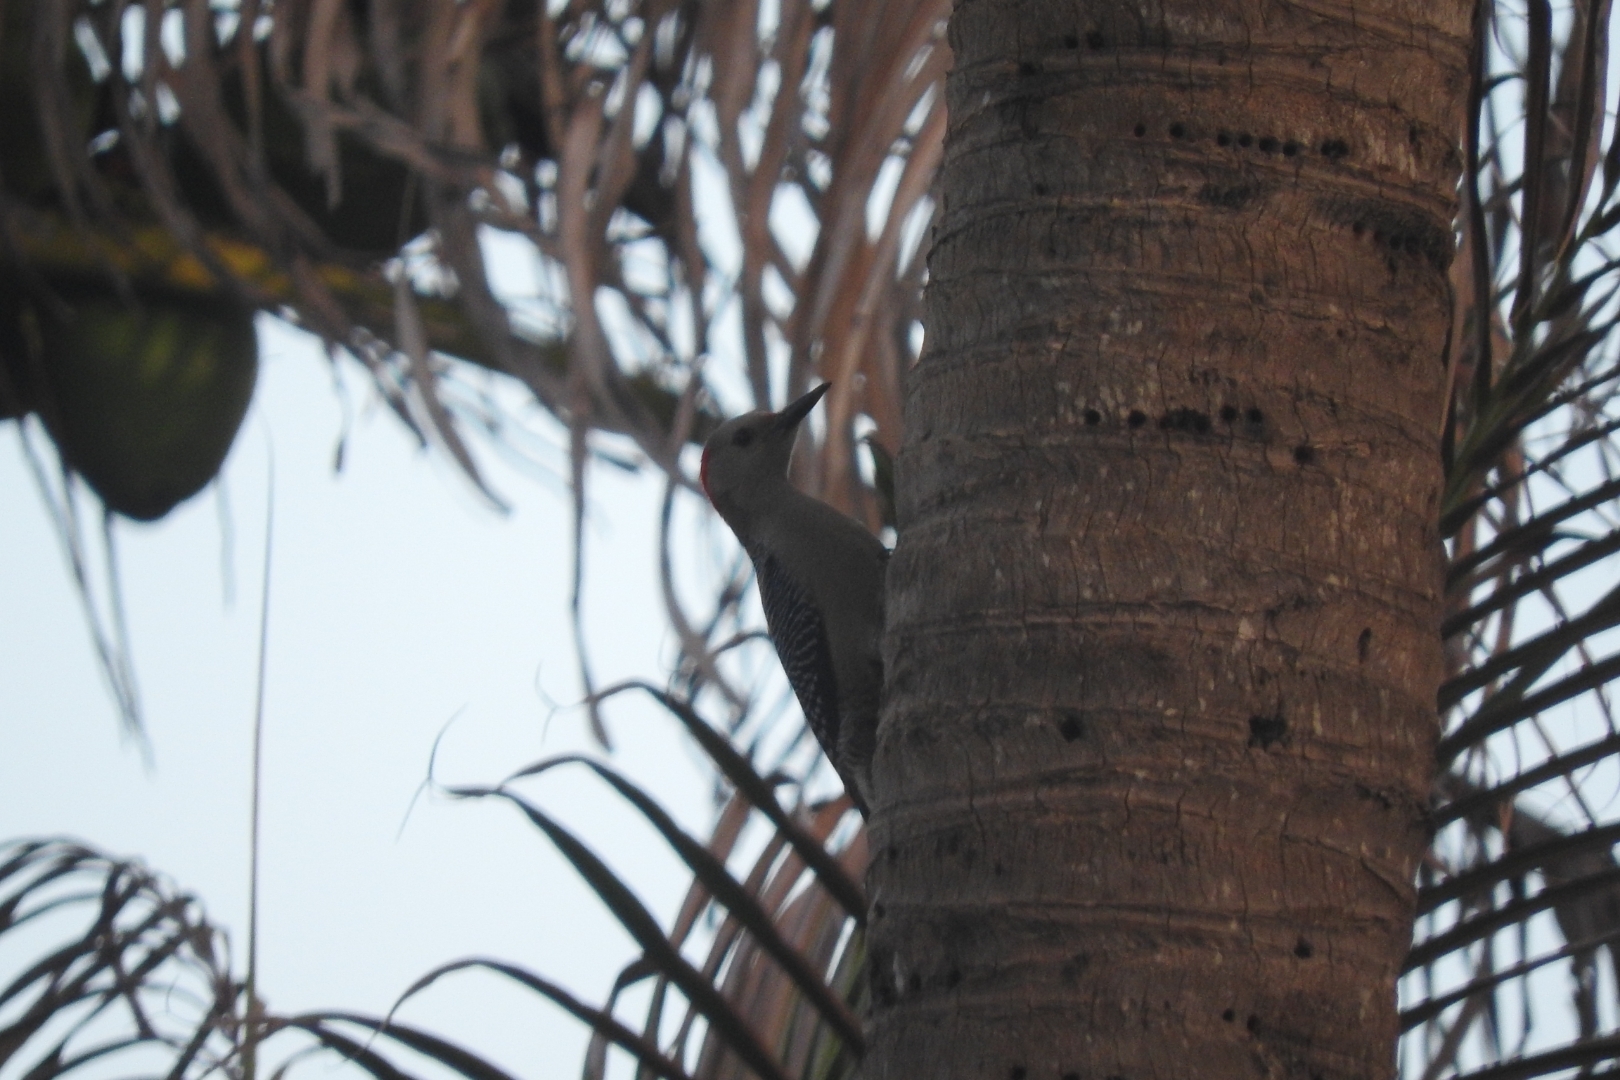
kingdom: Animalia
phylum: Chordata
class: Aves
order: Piciformes
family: Picidae
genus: Melanerpes
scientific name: Melanerpes aurifrons
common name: Golden-fronted woodpecker
